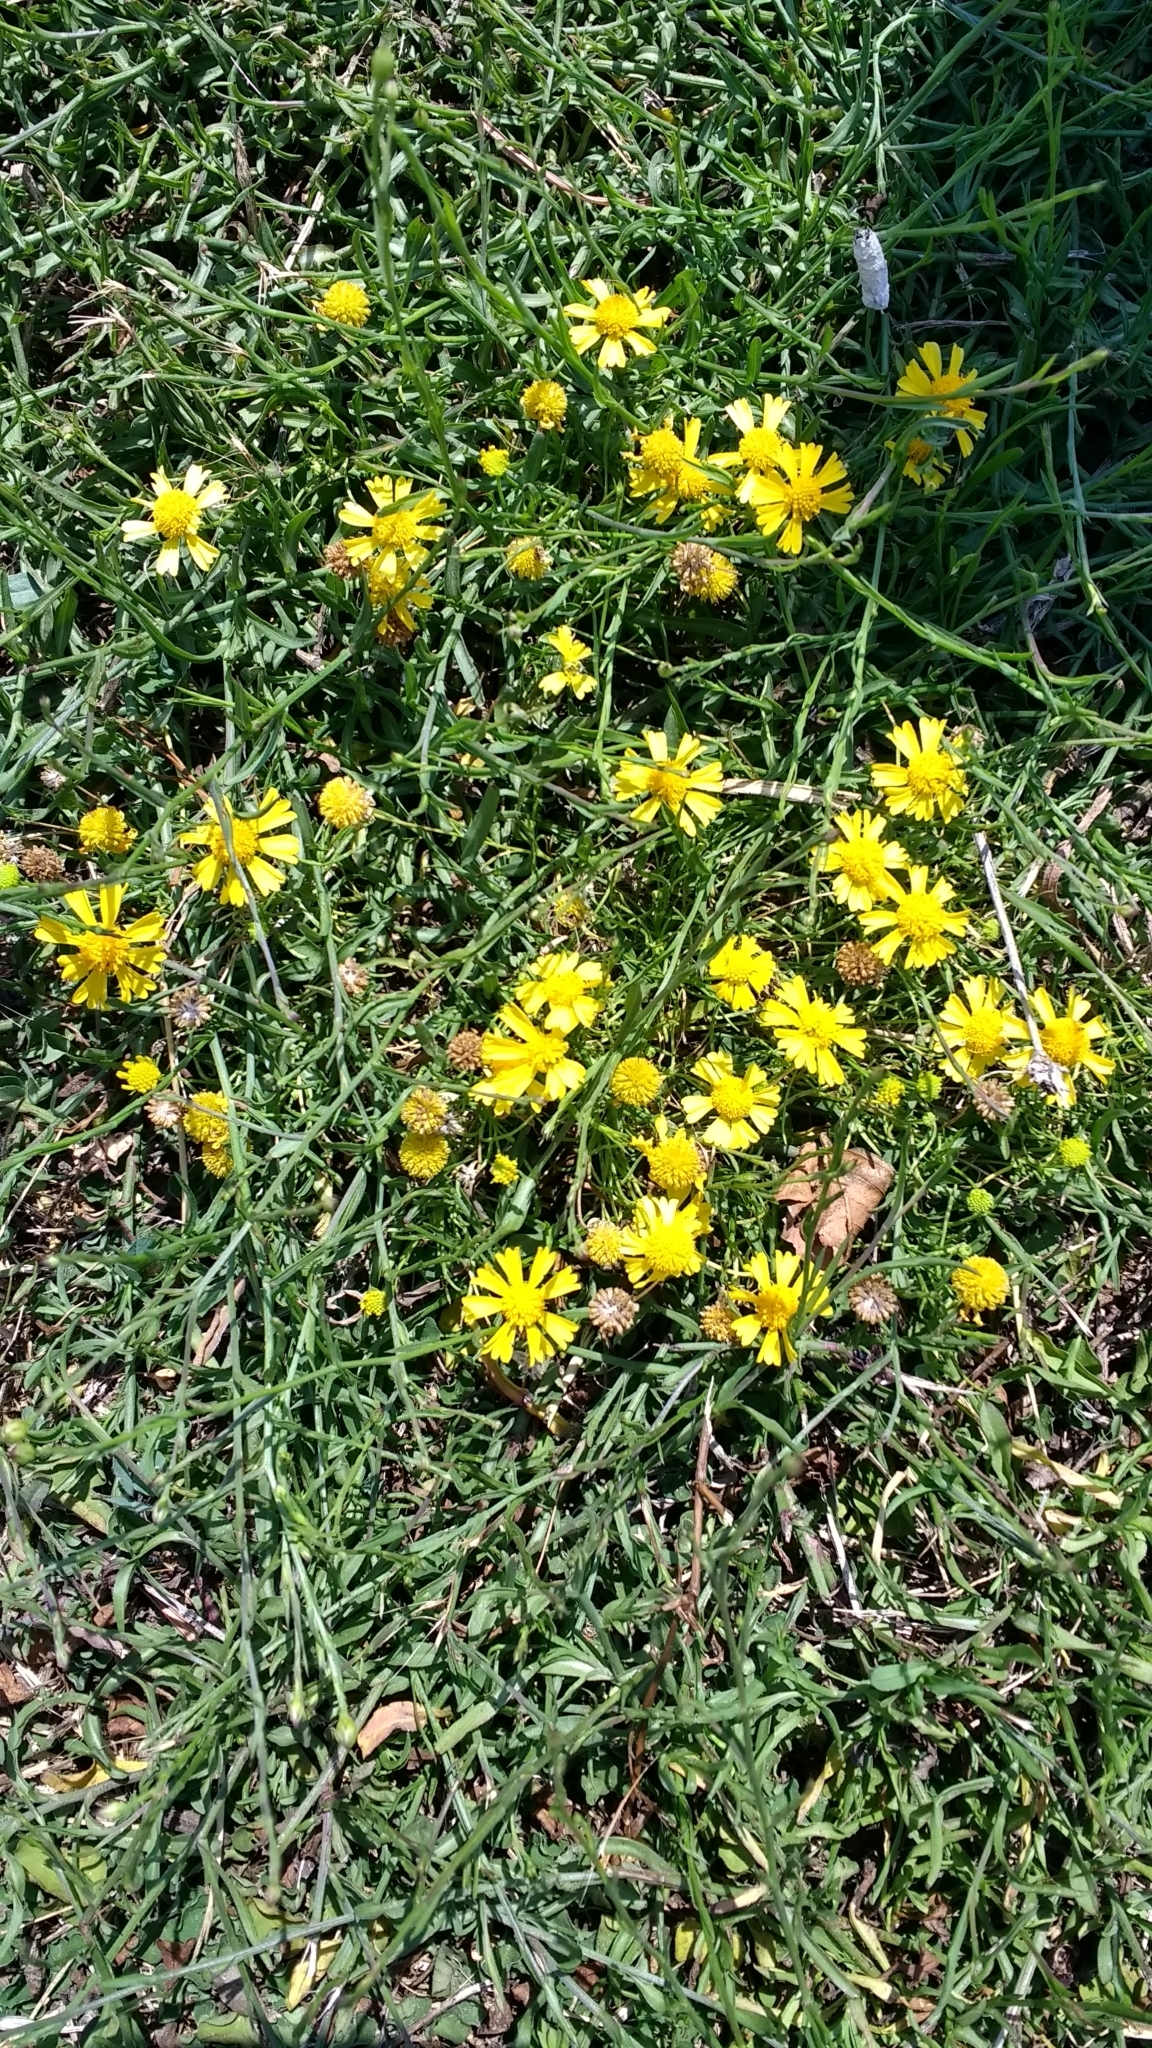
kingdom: Plantae
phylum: Tracheophyta
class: Magnoliopsida
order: Asterales
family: Asteraceae
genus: Helenium
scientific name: Helenium amarum
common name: Bitter sneezeweed
